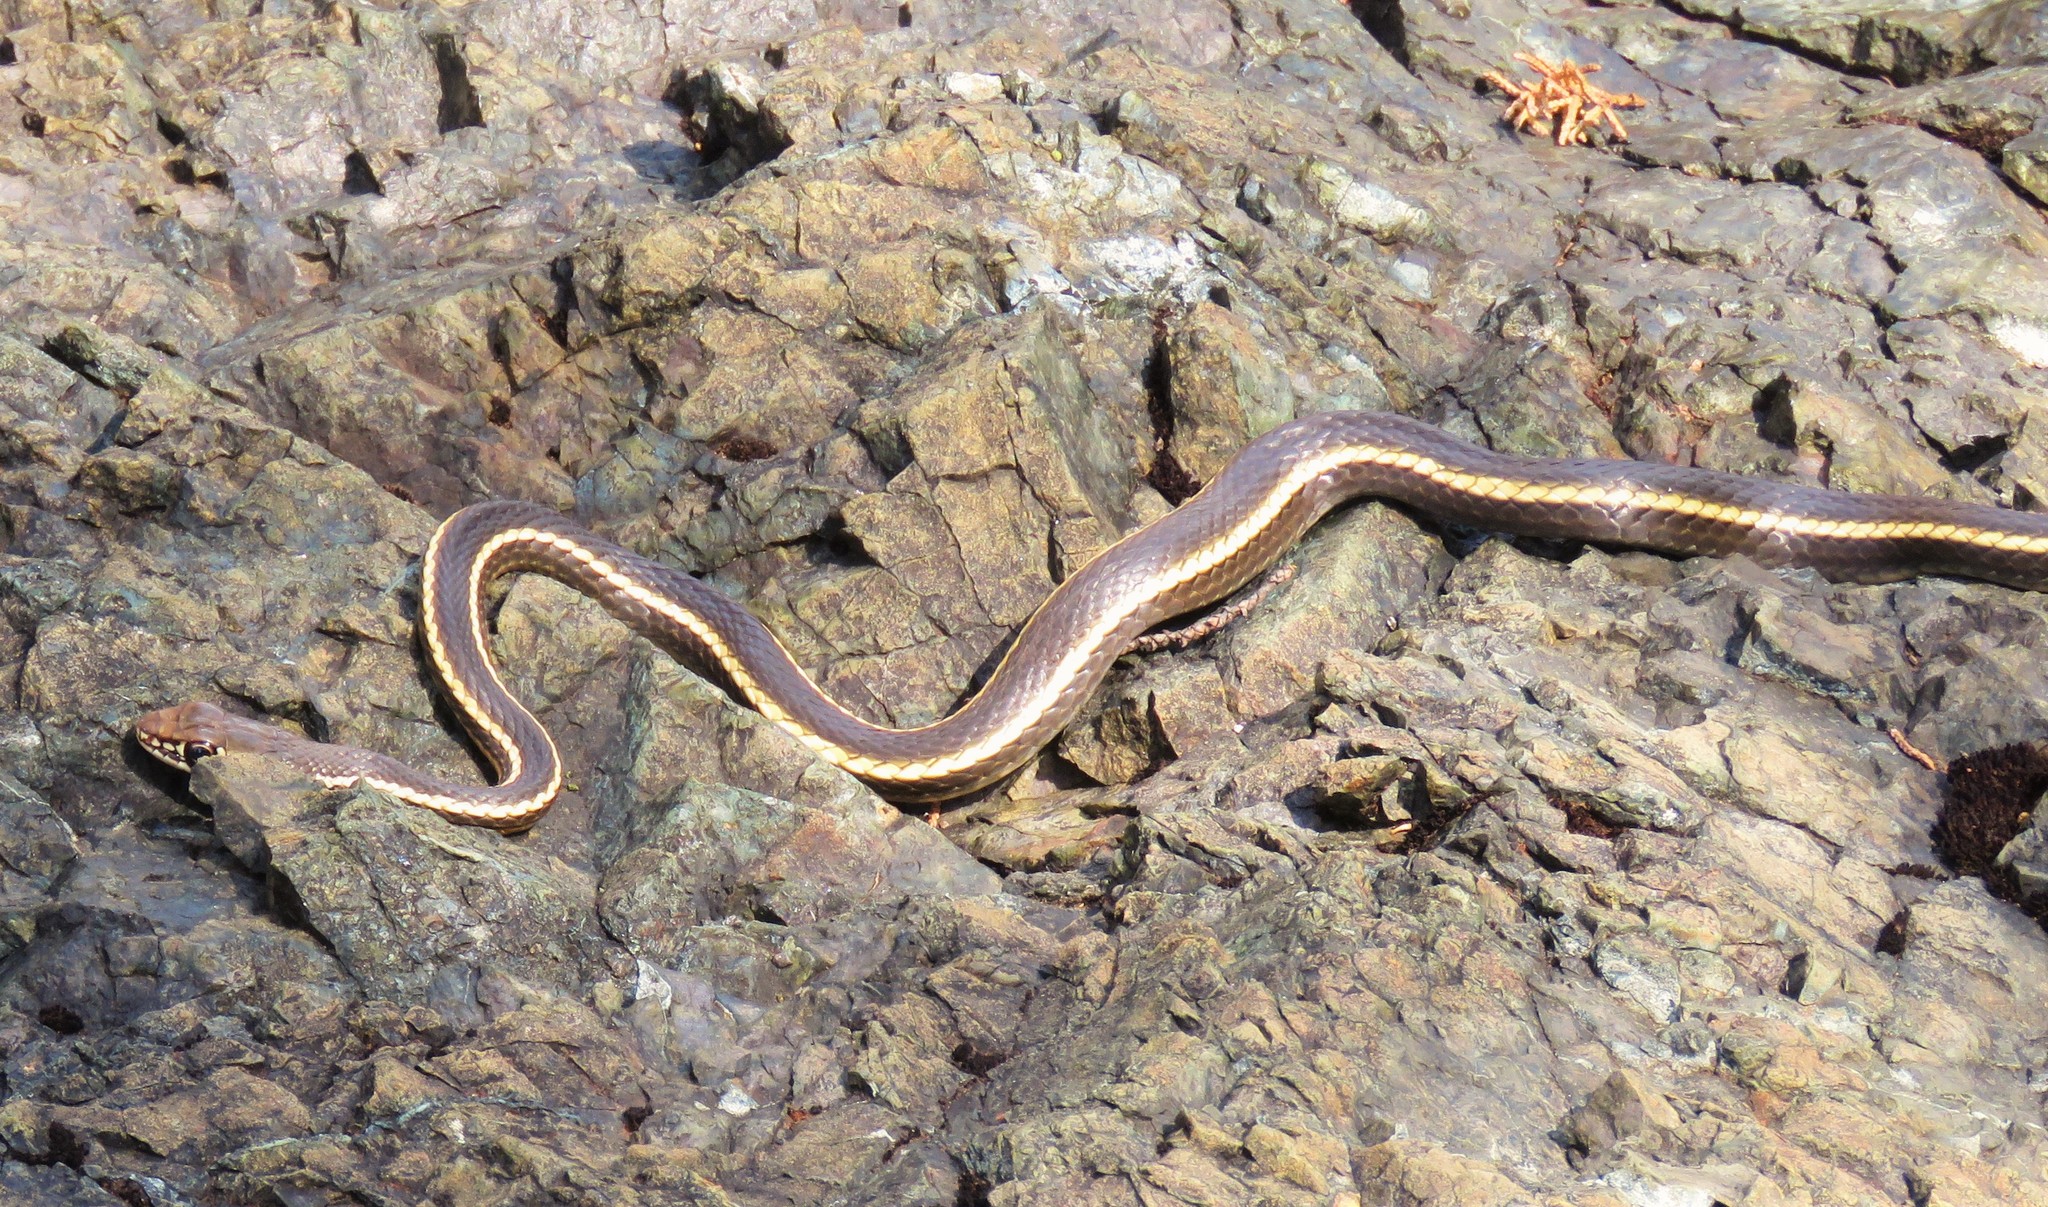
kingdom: Animalia
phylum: Chordata
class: Squamata
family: Colubridae
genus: Masticophis
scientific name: Masticophis lateralis
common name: Striped racer
